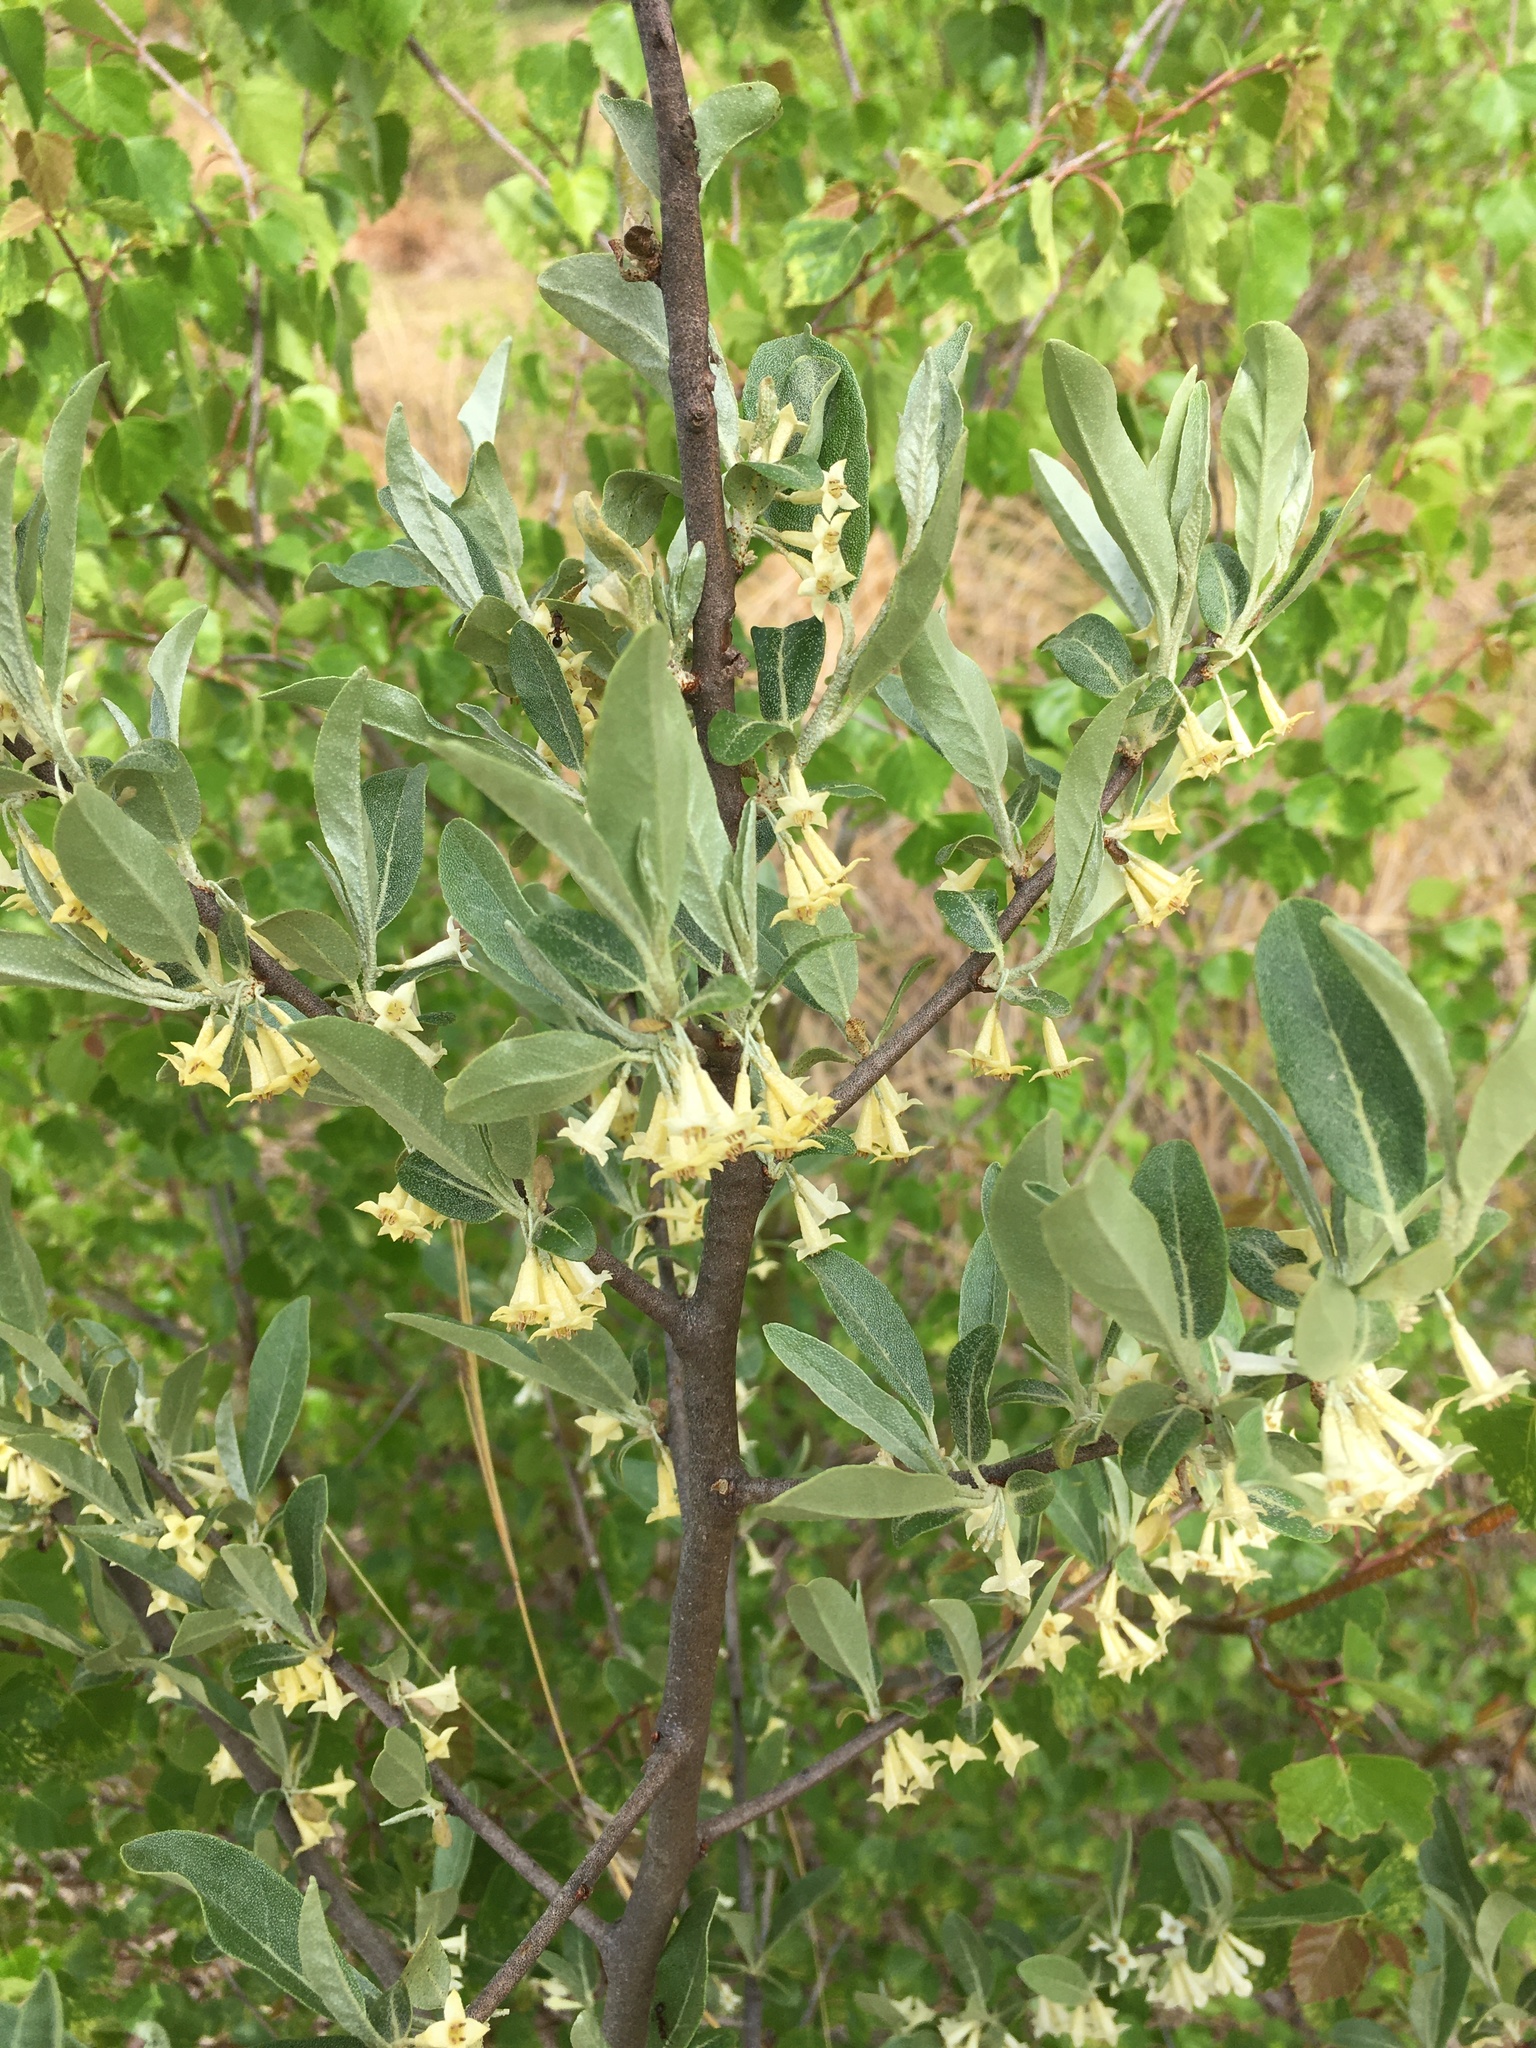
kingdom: Plantae
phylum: Tracheophyta
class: Magnoliopsida
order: Rosales
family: Elaeagnaceae
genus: Elaeagnus
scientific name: Elaeagnus umbellata
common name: Autumn olive
